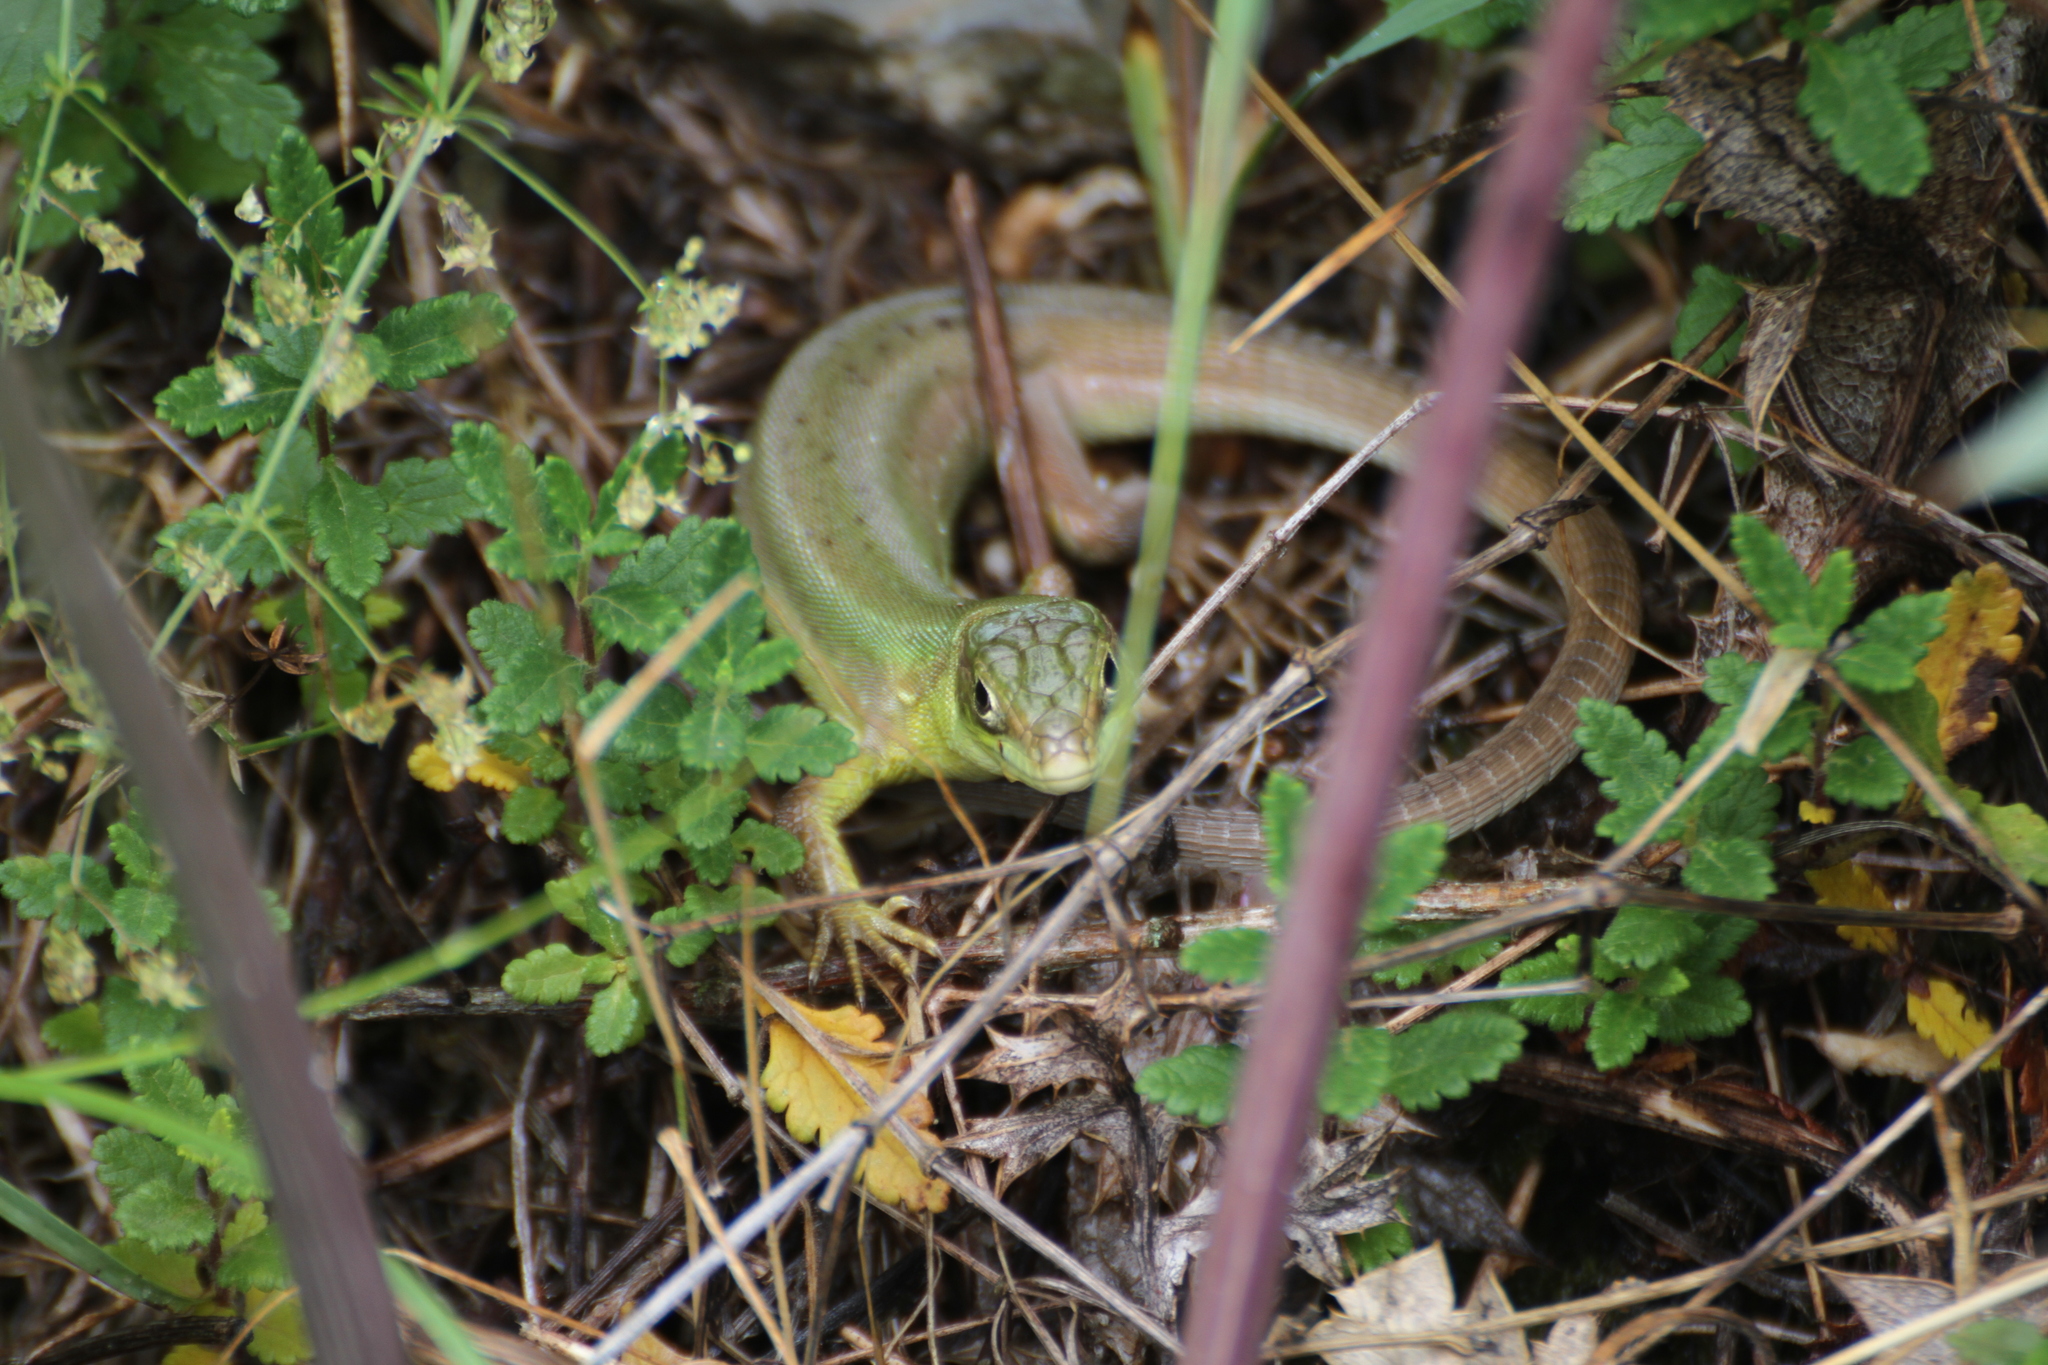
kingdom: Animalia
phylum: Chordata
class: Squamata
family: Lacertidae
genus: Lacerta
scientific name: Lacerta bilineata
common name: Western green lizard
